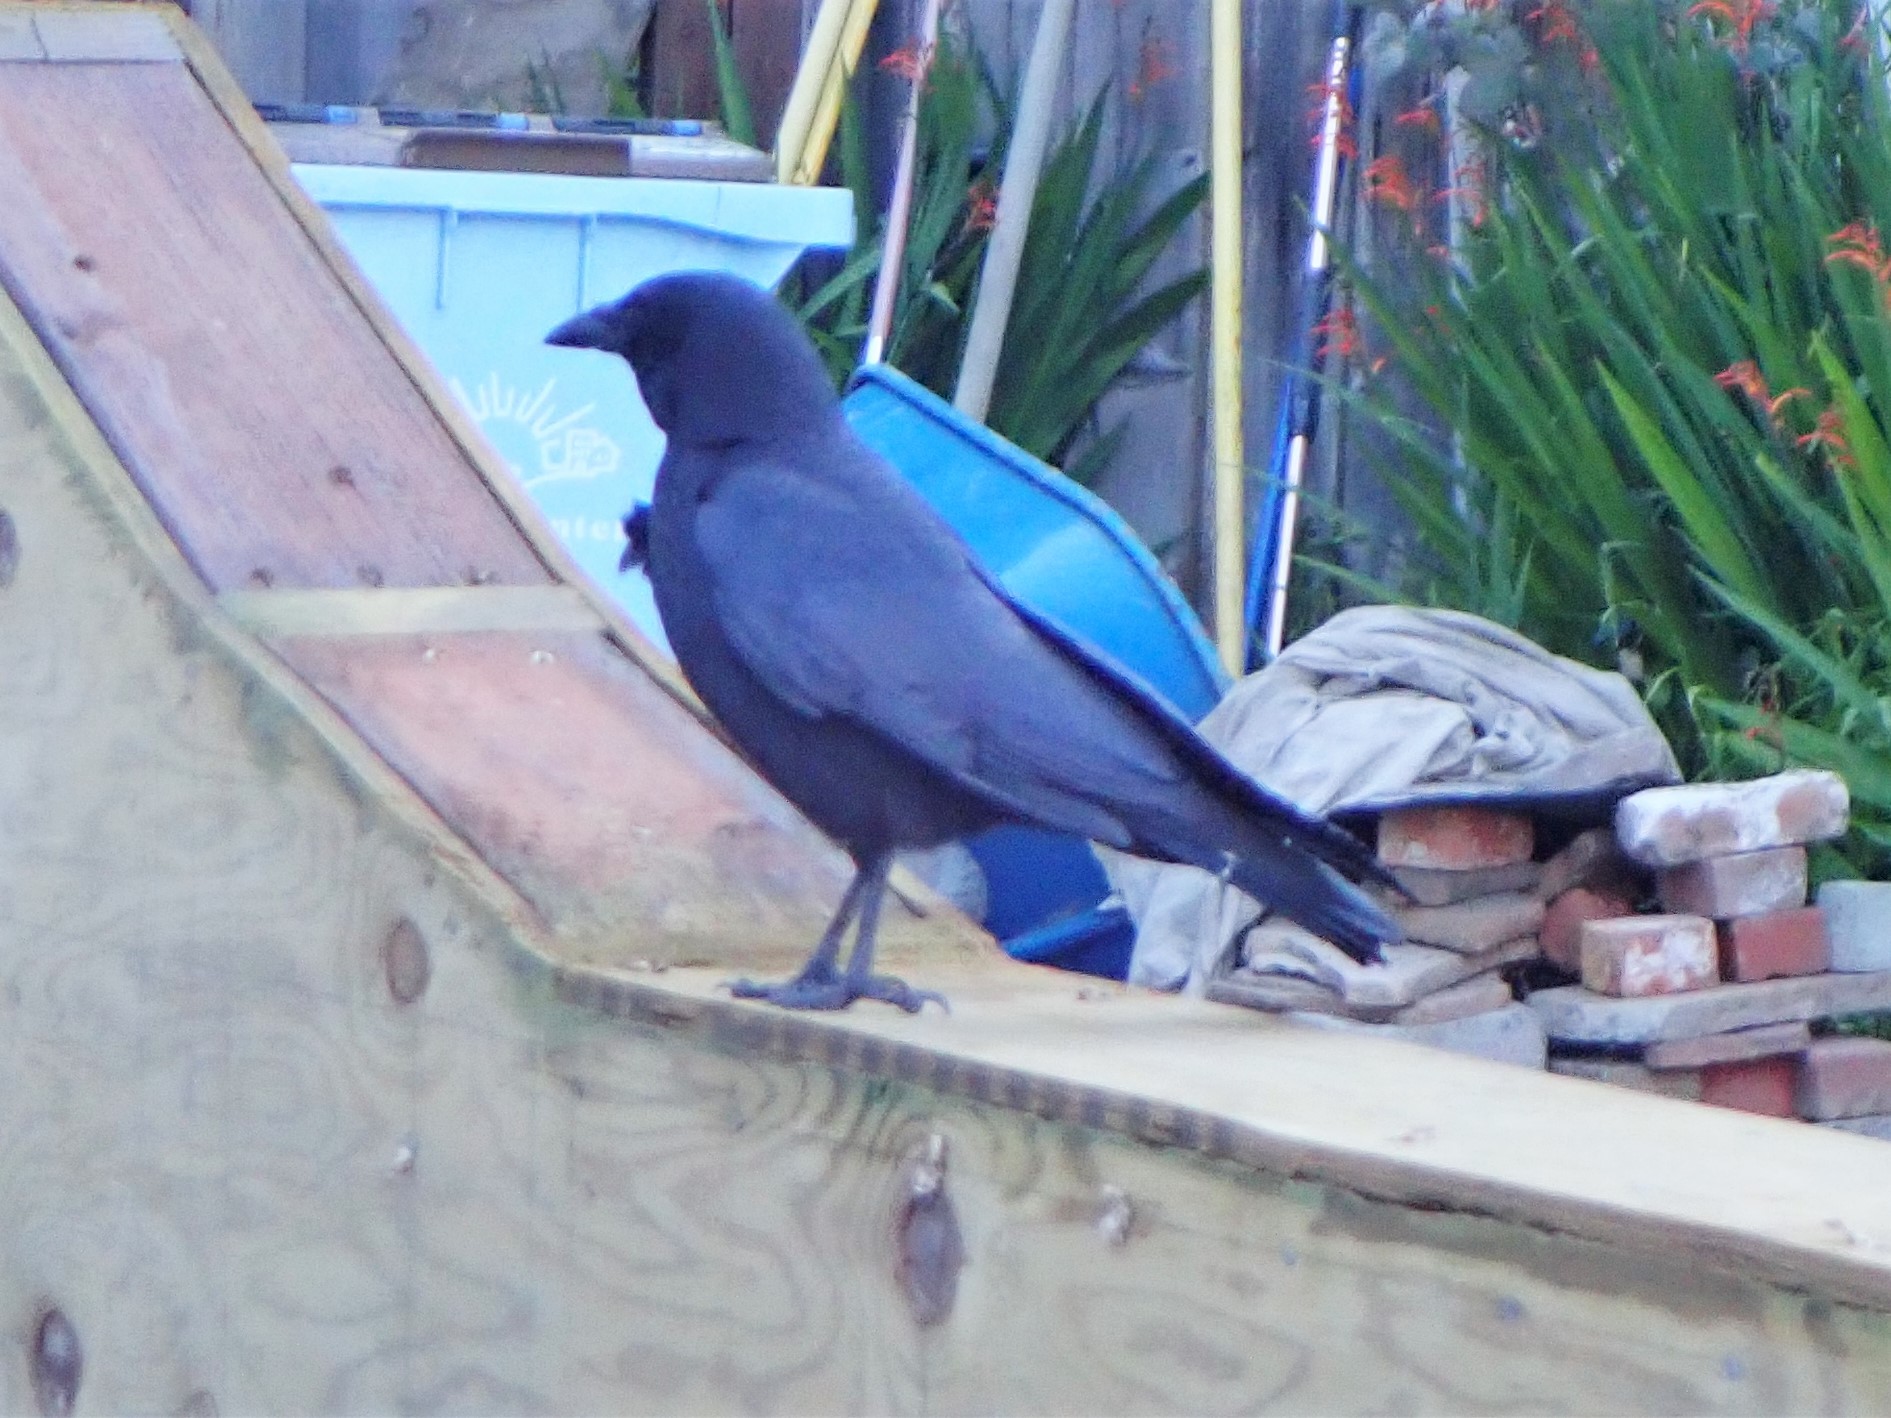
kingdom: Animalia
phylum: Chordata
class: Aves
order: Passeriformes
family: Corvidae
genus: Corvus
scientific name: Corvus brachyrhynchos
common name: American crow
